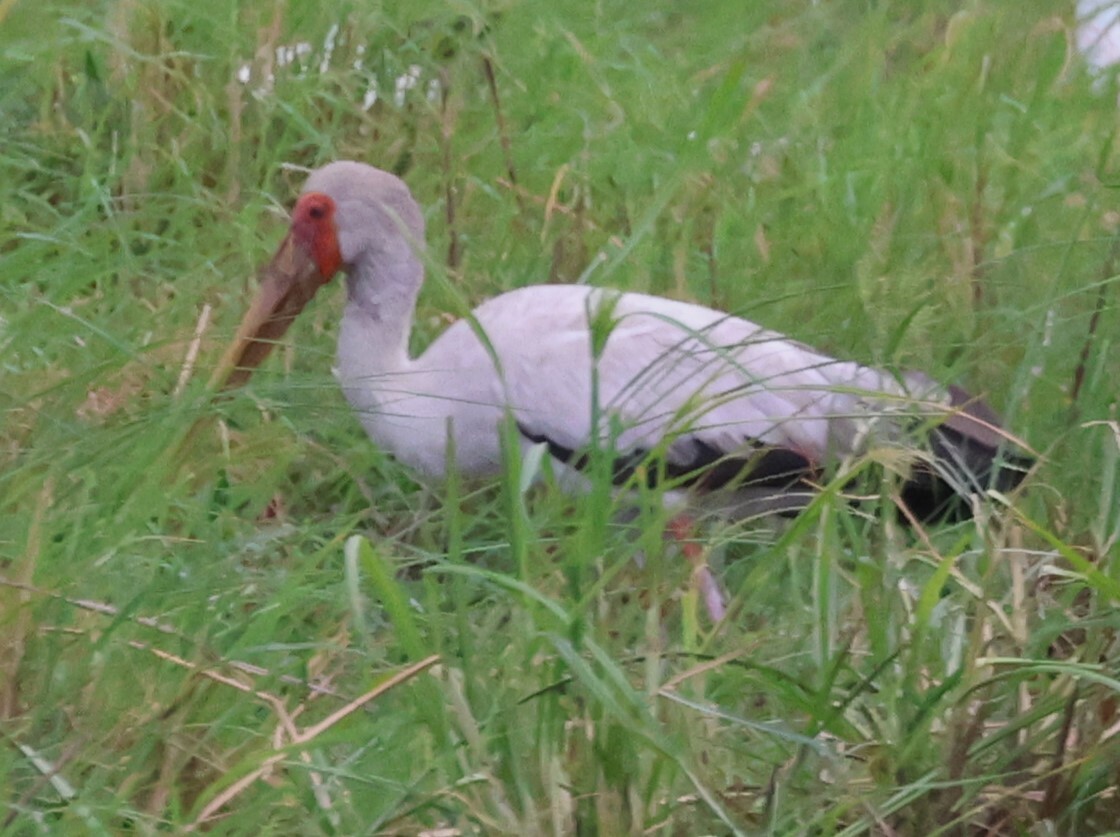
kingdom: Animalia
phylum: Chordata
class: Aves
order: Ciconiiformes
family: Ciconiidae
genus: Mycteria
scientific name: Mycteria ibis
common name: Yellow-billed stork
